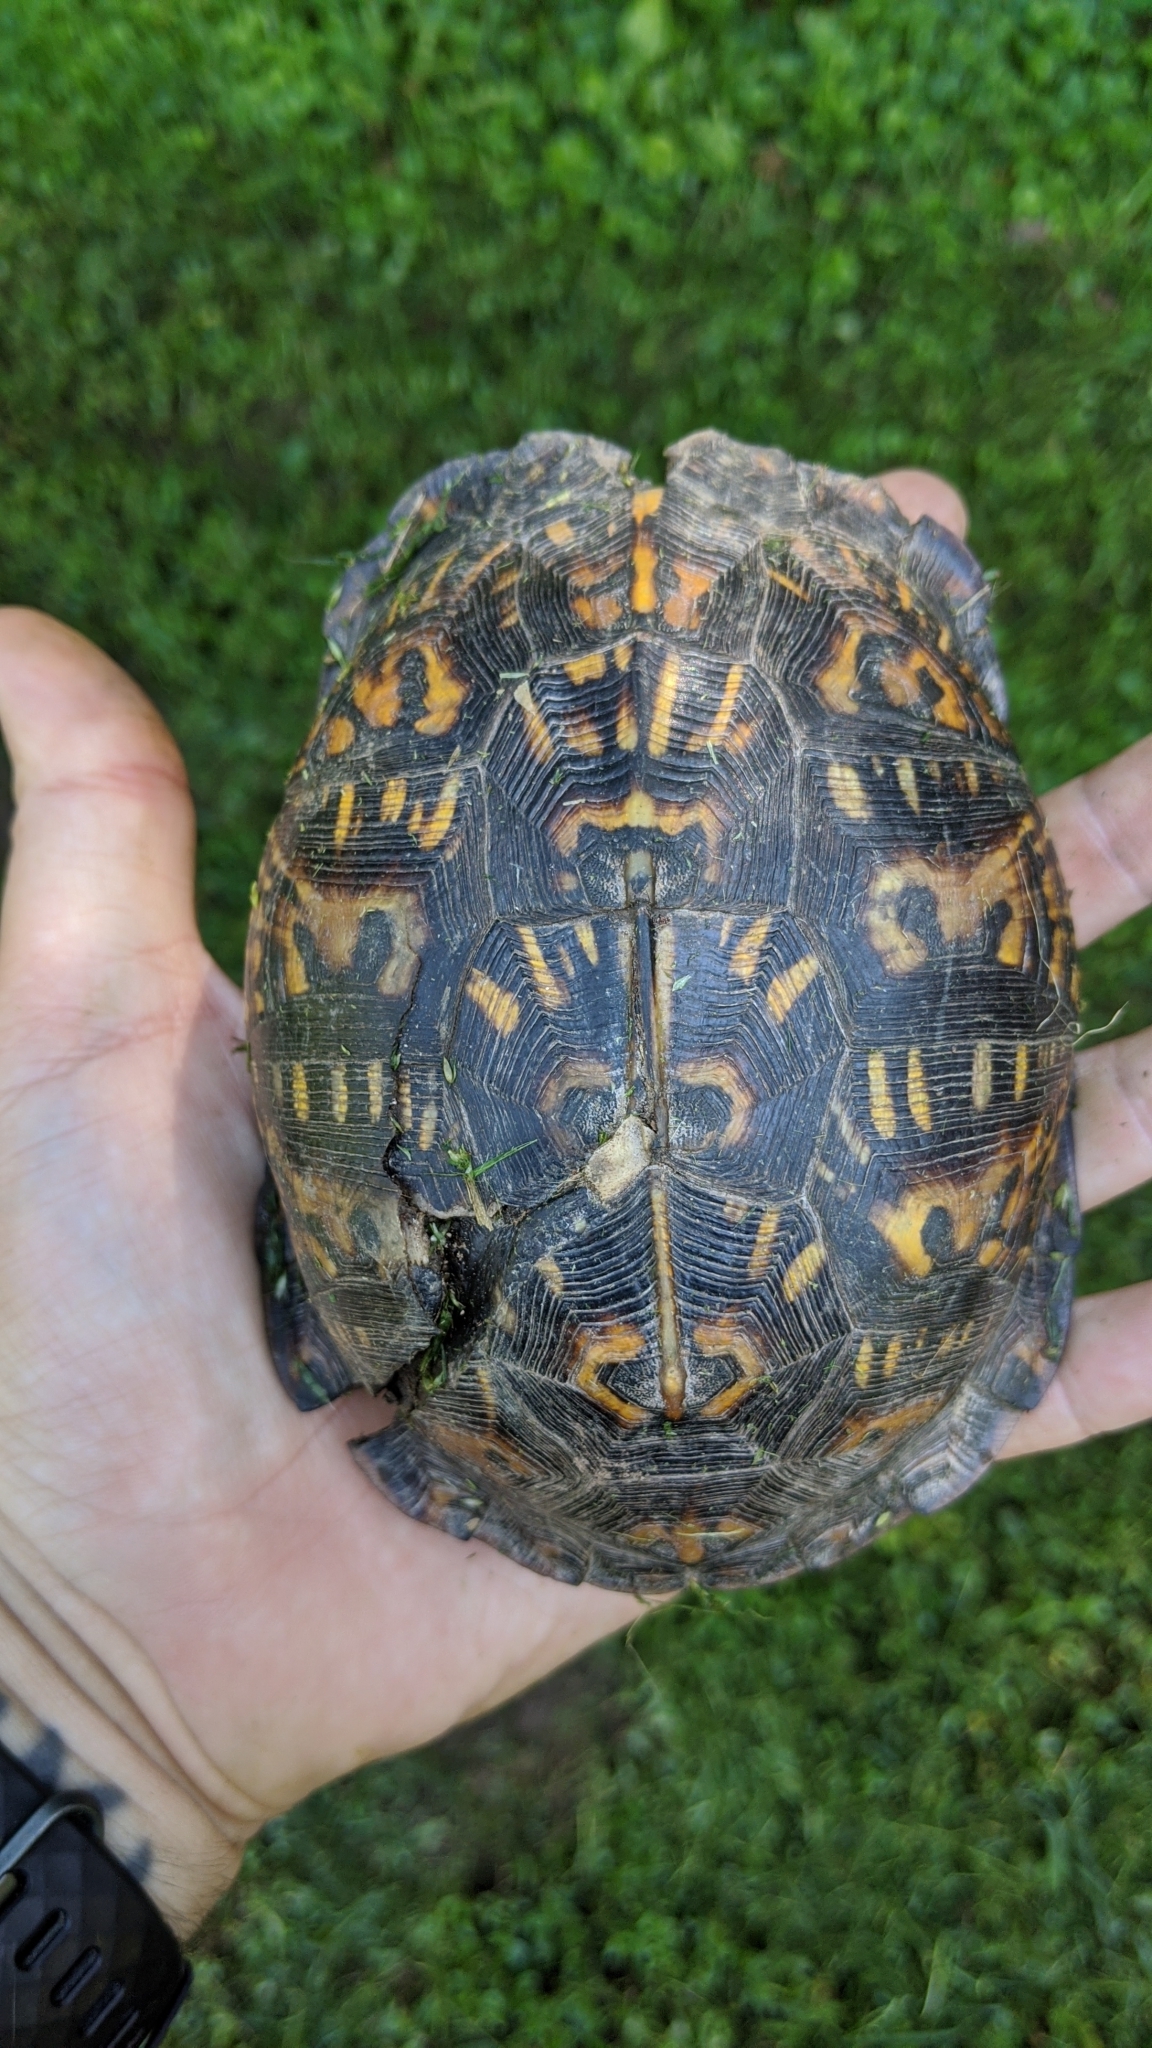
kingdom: Animalia
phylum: Chordata
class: Testudines
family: Emydidae
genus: Terrapene
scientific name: Terrapene carolina
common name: Common box turtle
